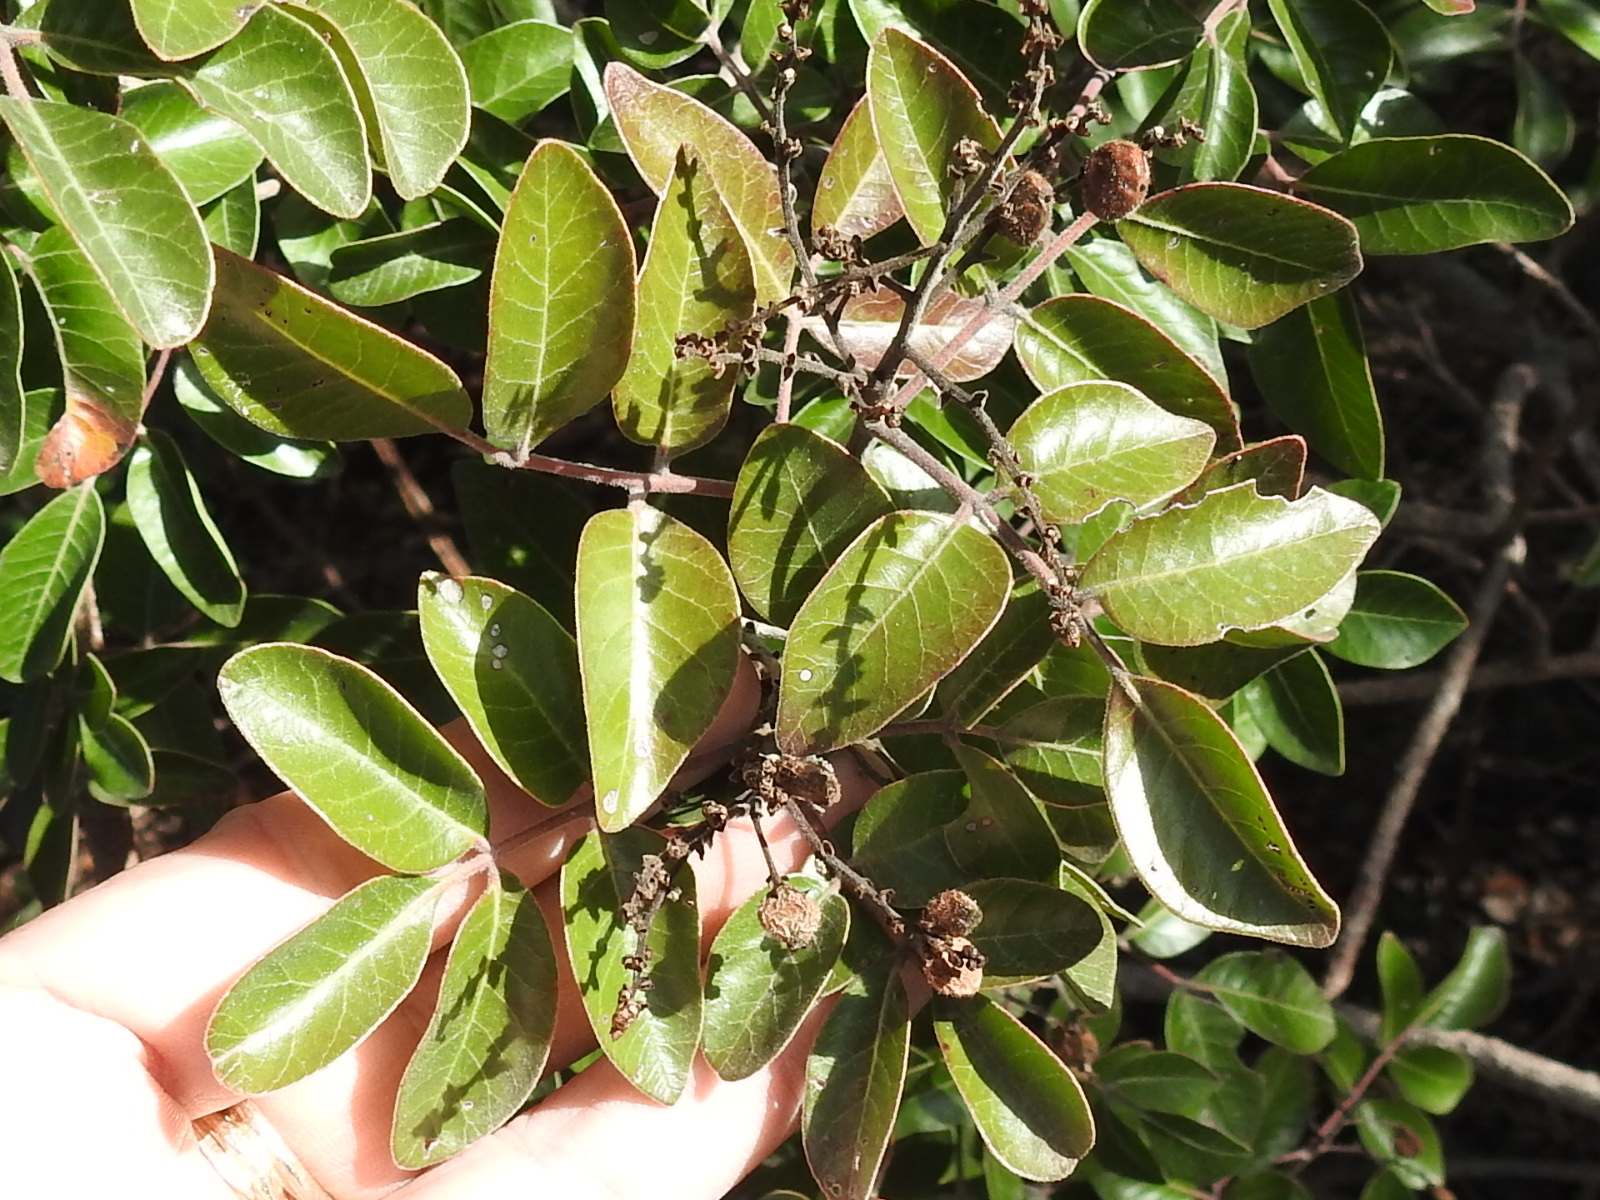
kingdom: Plantae
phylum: Tracheophyta
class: Magnoliopsida
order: Sapindales
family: Anacardiaceae
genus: Rhus
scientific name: Rhus virens
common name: Evergreen sumac
